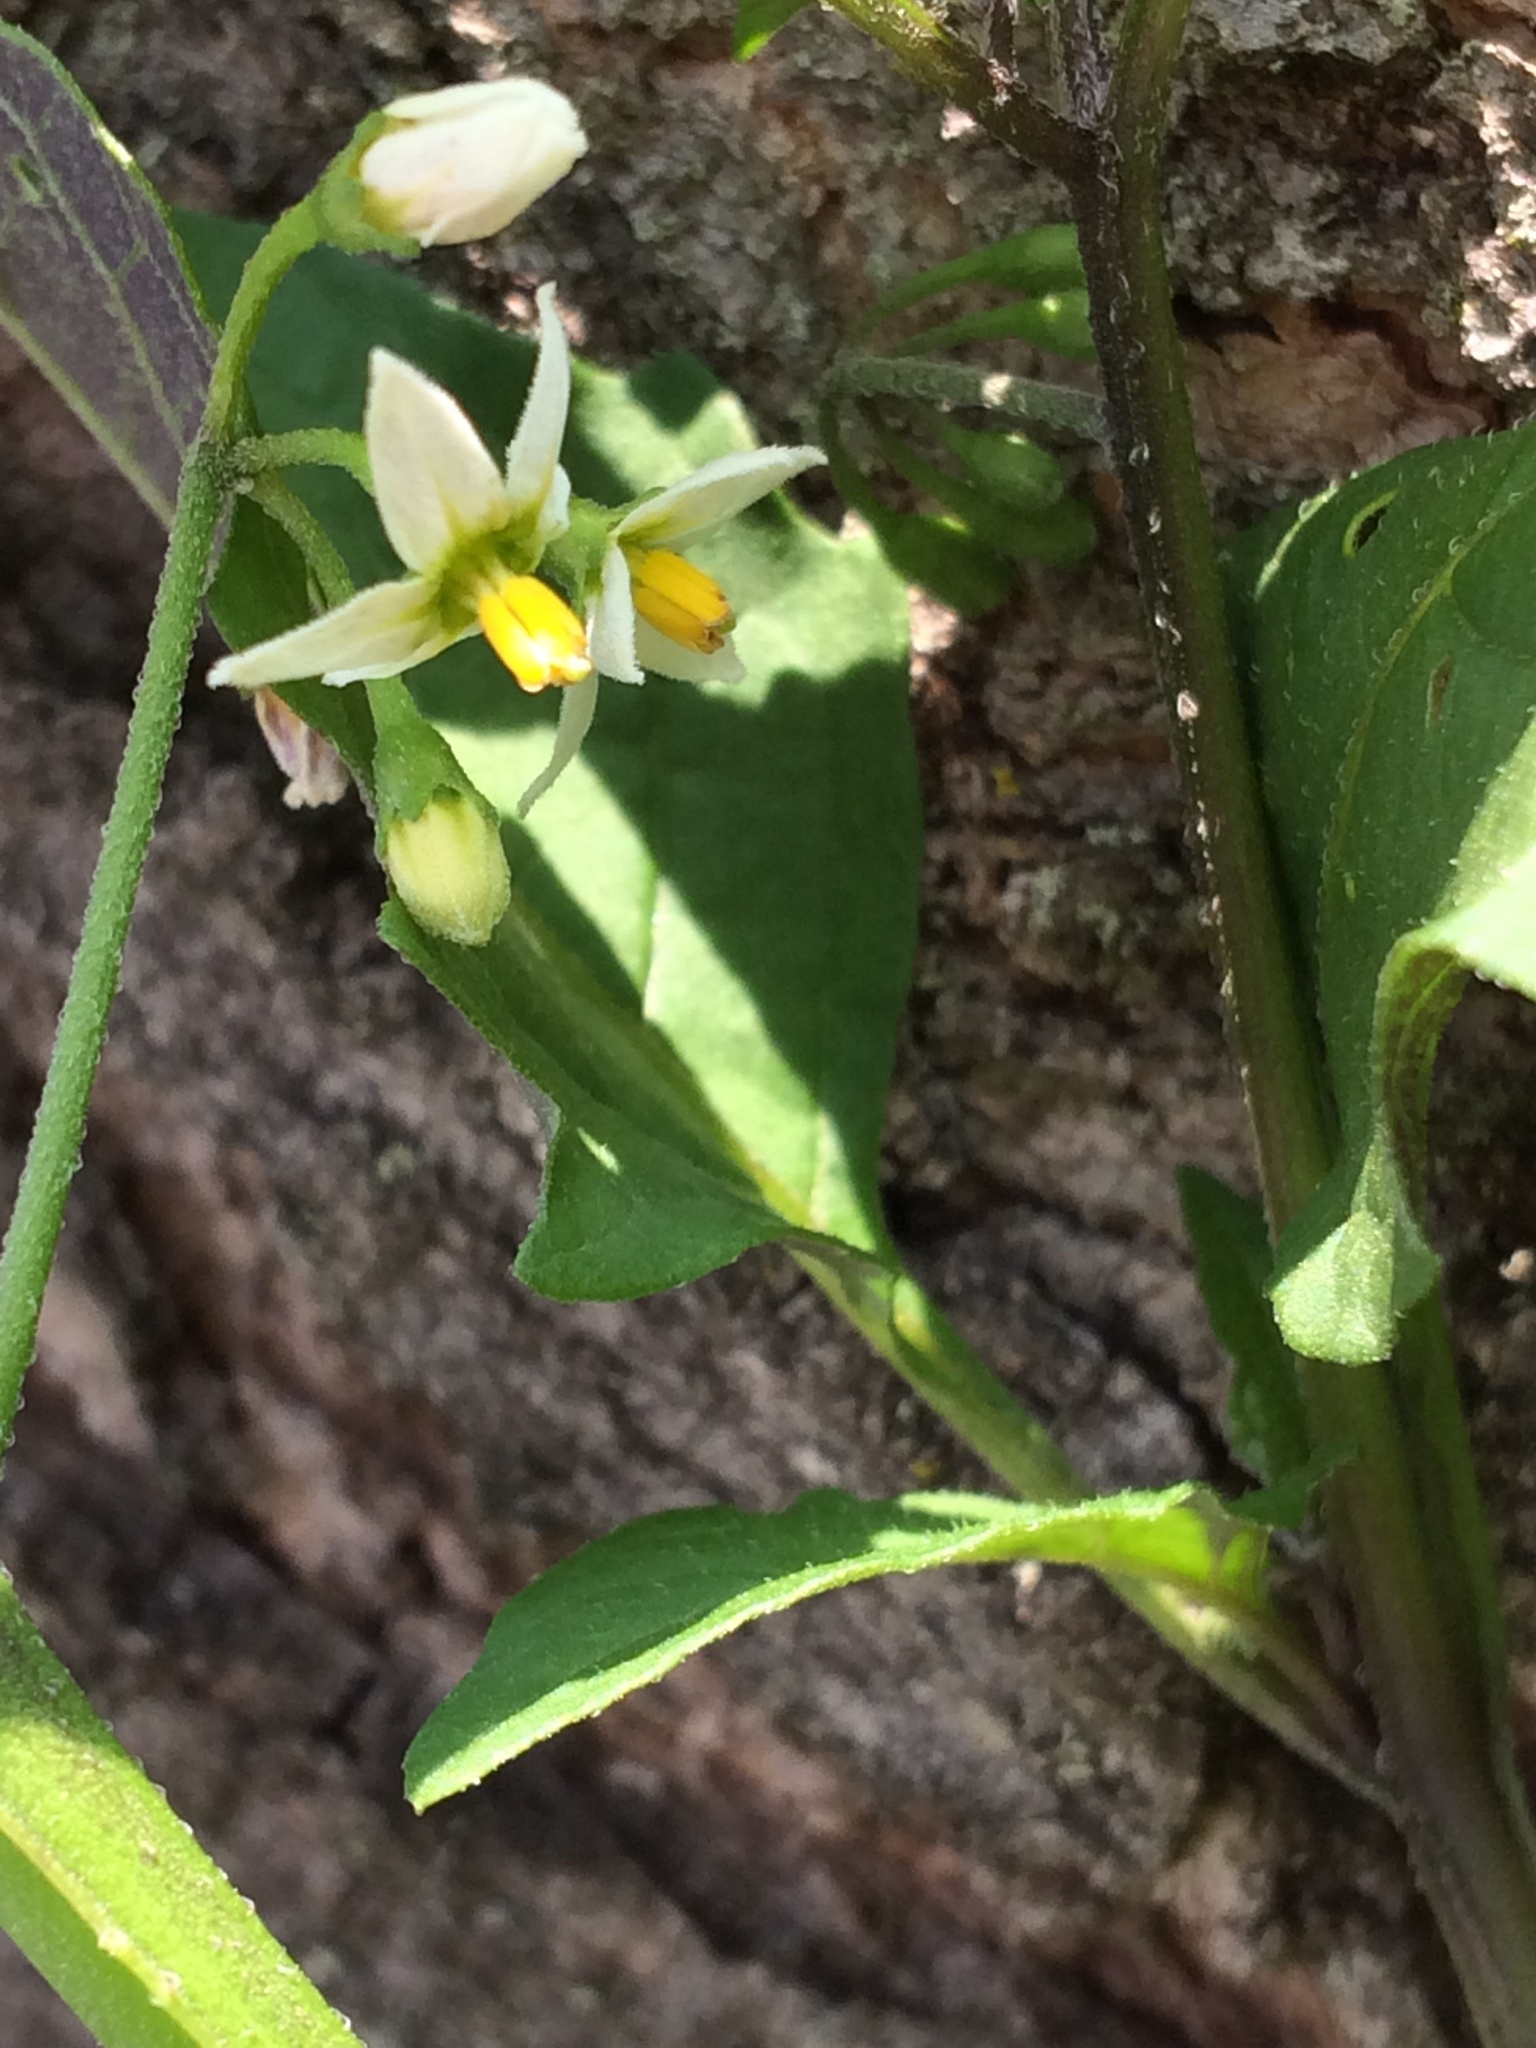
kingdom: Plantae
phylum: Tracheophyta
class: Magnoliopsida
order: Solanales
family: Solanaceae
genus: Solanum
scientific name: Solanum emulans
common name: Eastern black nightshade
